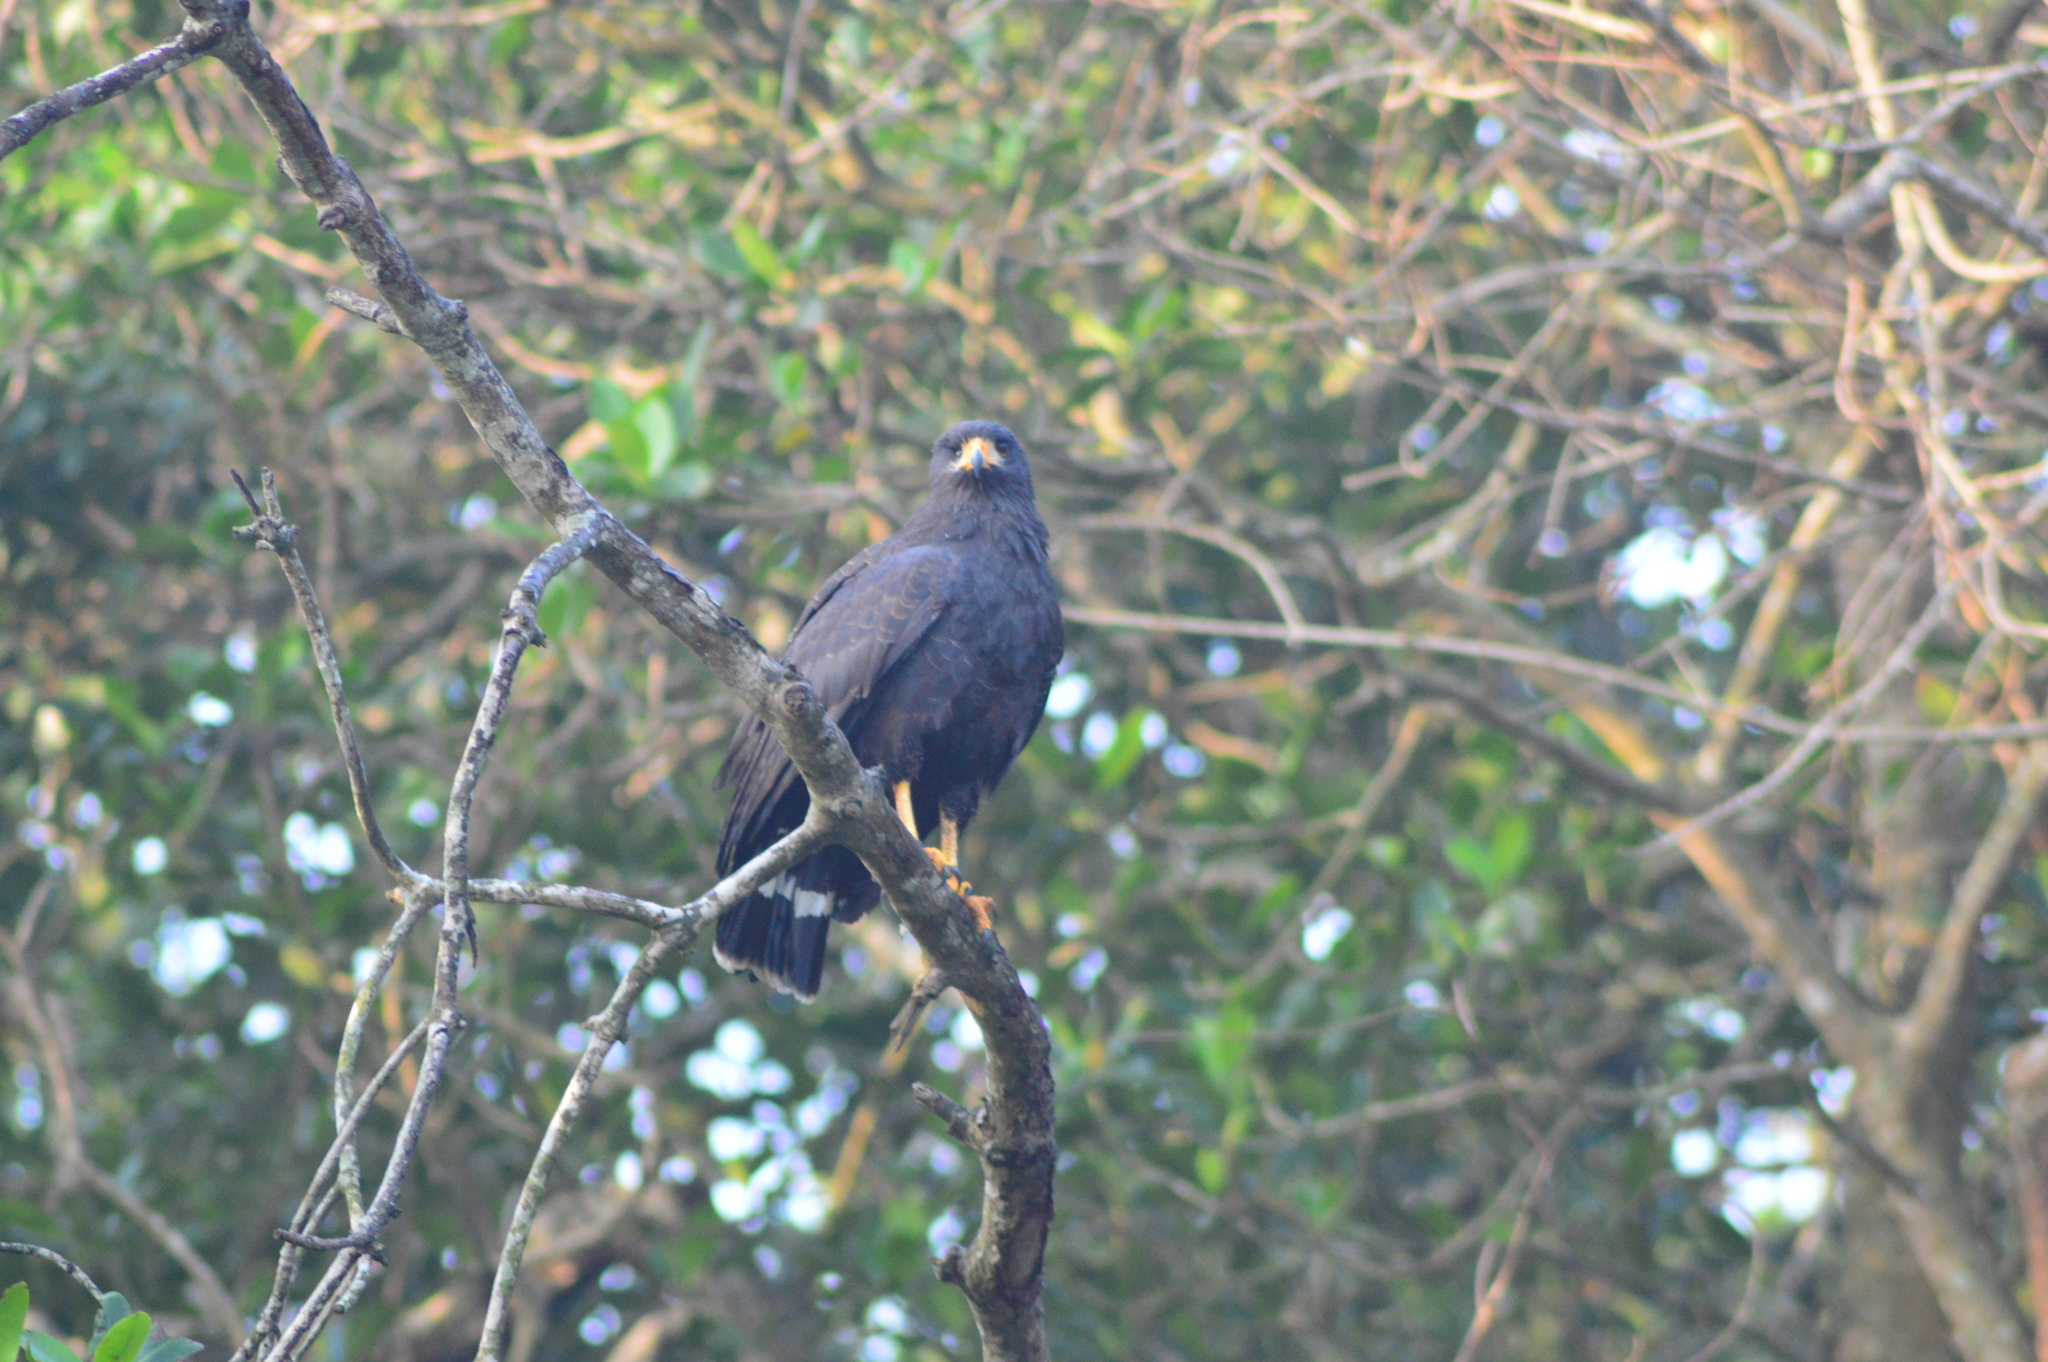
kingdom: Animalia
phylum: Chordata
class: Aves
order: Accipitriformes
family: Accipitridae
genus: Buteogallus
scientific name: Buteogallus anthracinus
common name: Common black hawk
